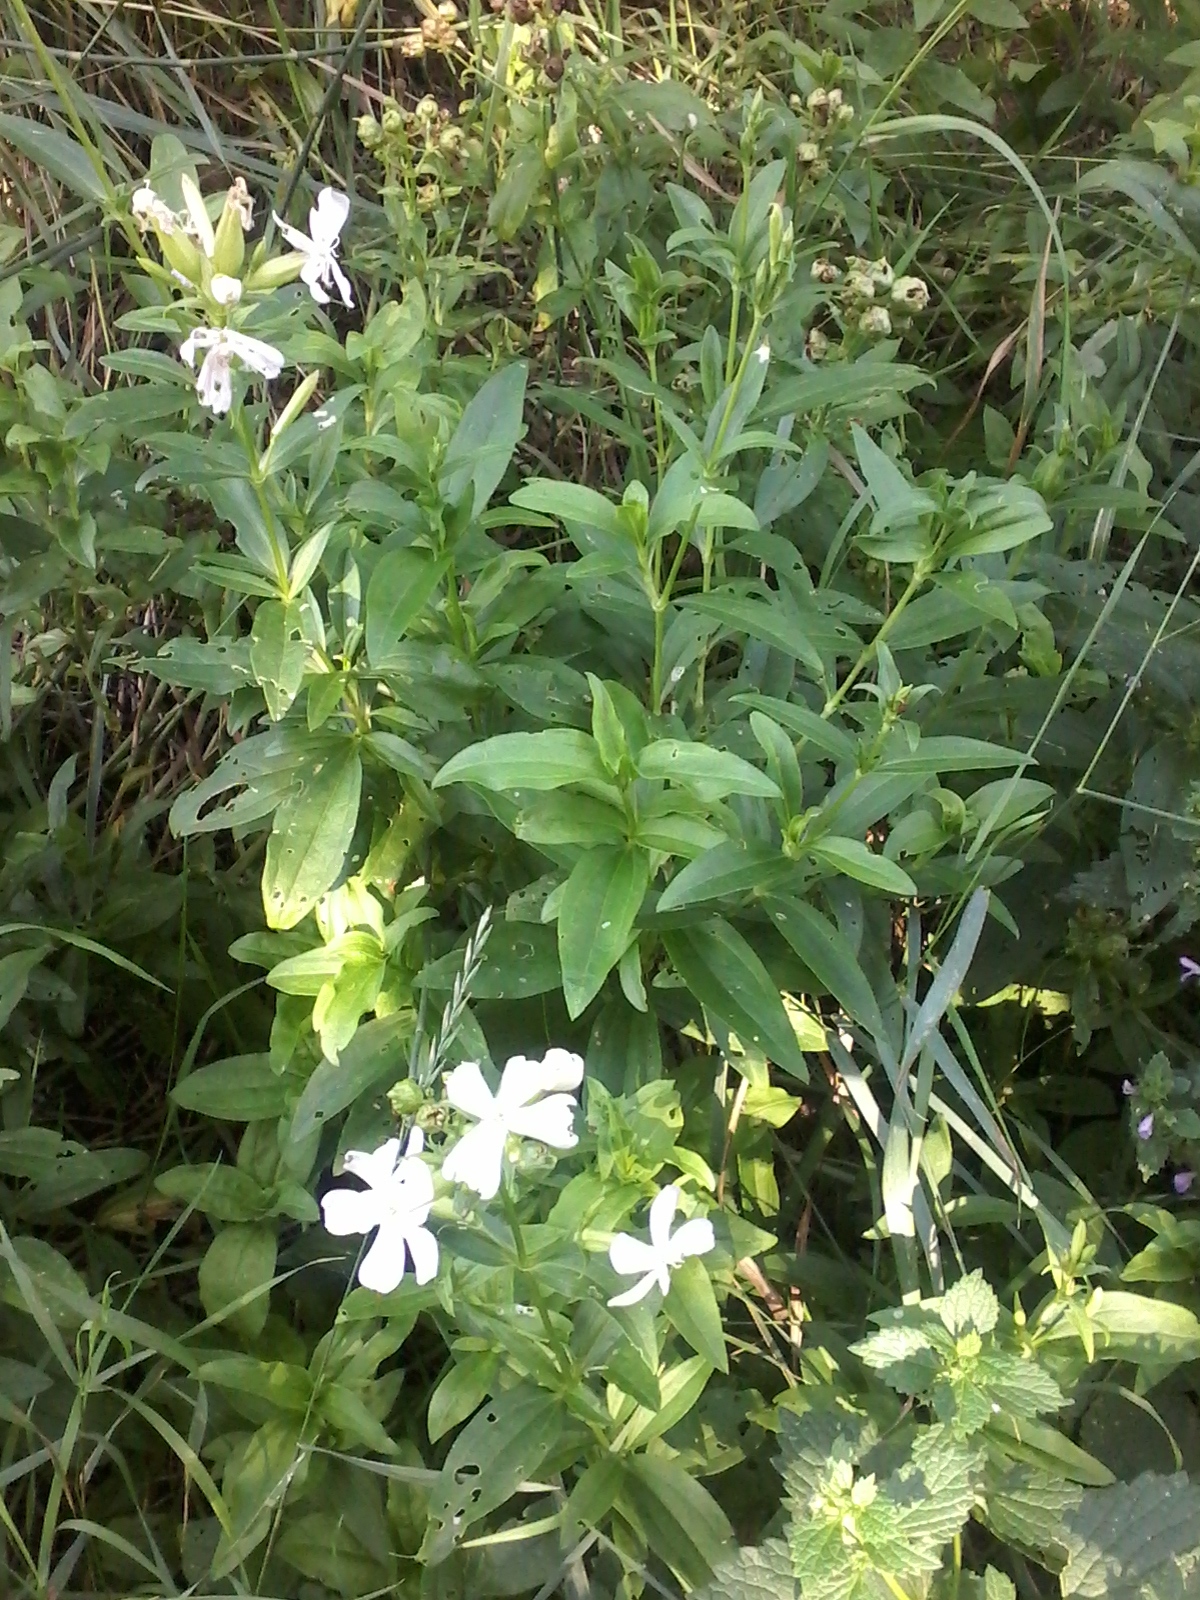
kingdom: Plantae
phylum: Tracheophyta
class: Magnoliopsida
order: Caryophyllales
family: Caryophyllaceae
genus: Saponaria
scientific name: Saponaria officinalis
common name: Soapwort
